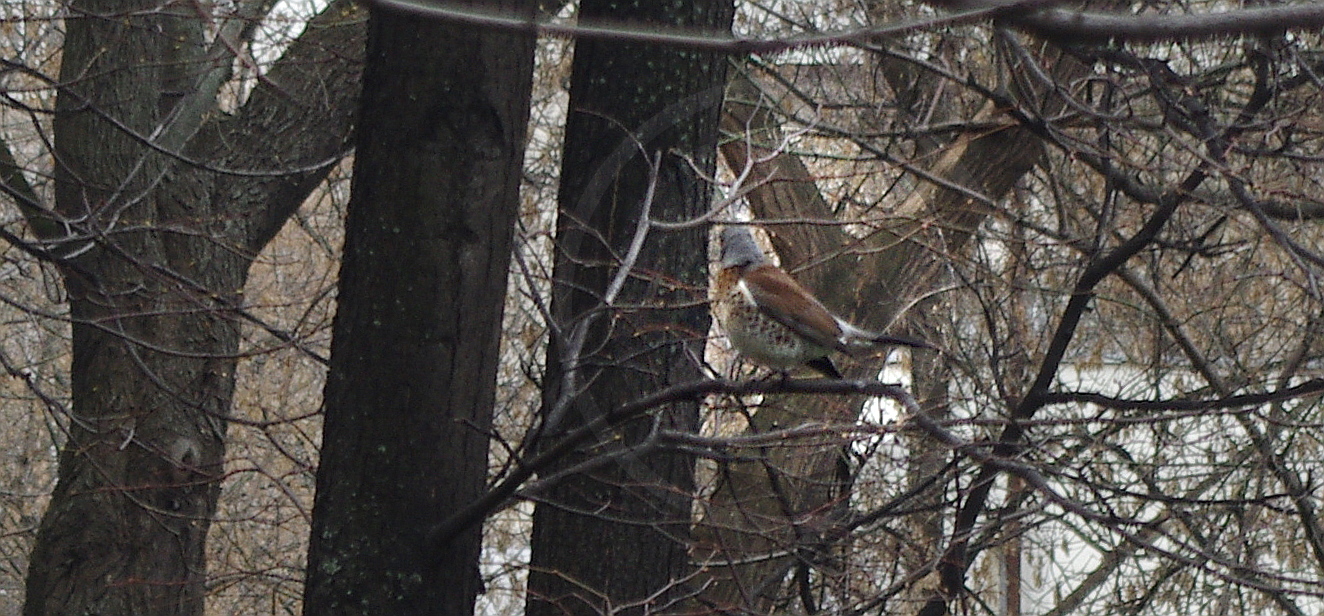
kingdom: Animalia
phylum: Chordata
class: Aves
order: Passeriformes
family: Turdidae
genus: Turdus
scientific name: Turdus pilaris
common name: Fieldfare
